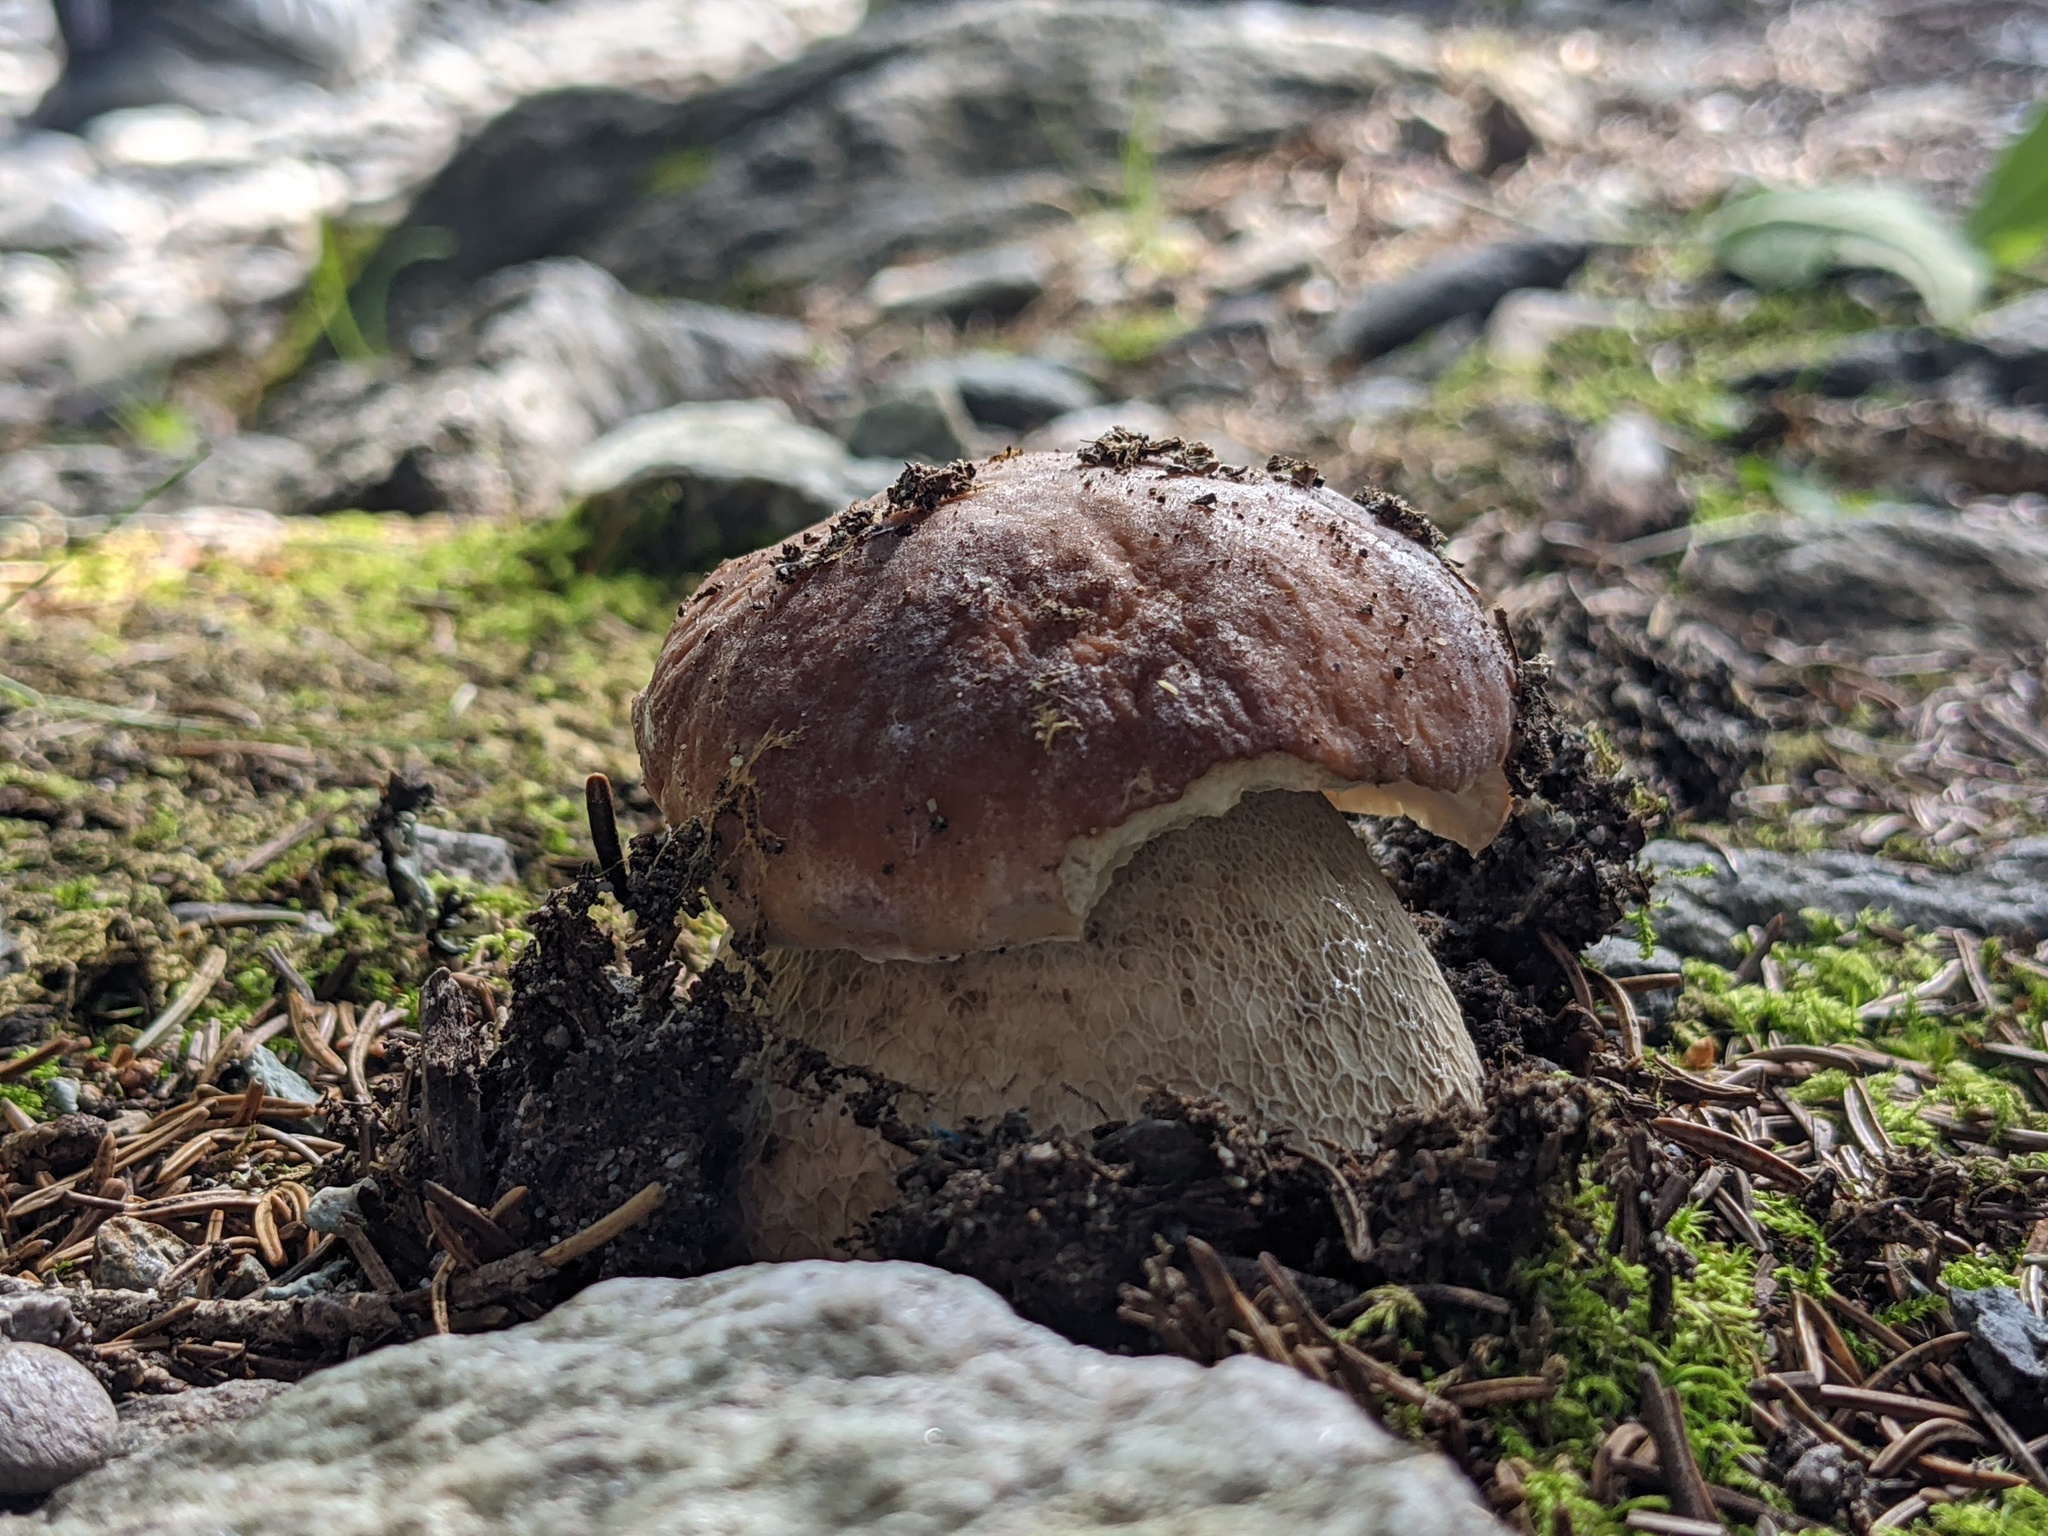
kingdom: Fungi
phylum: Basidiomycota
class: Agaricomycetes
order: Boletales
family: Boletaceae
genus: Boletus
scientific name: Boletus edulis
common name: Cep
